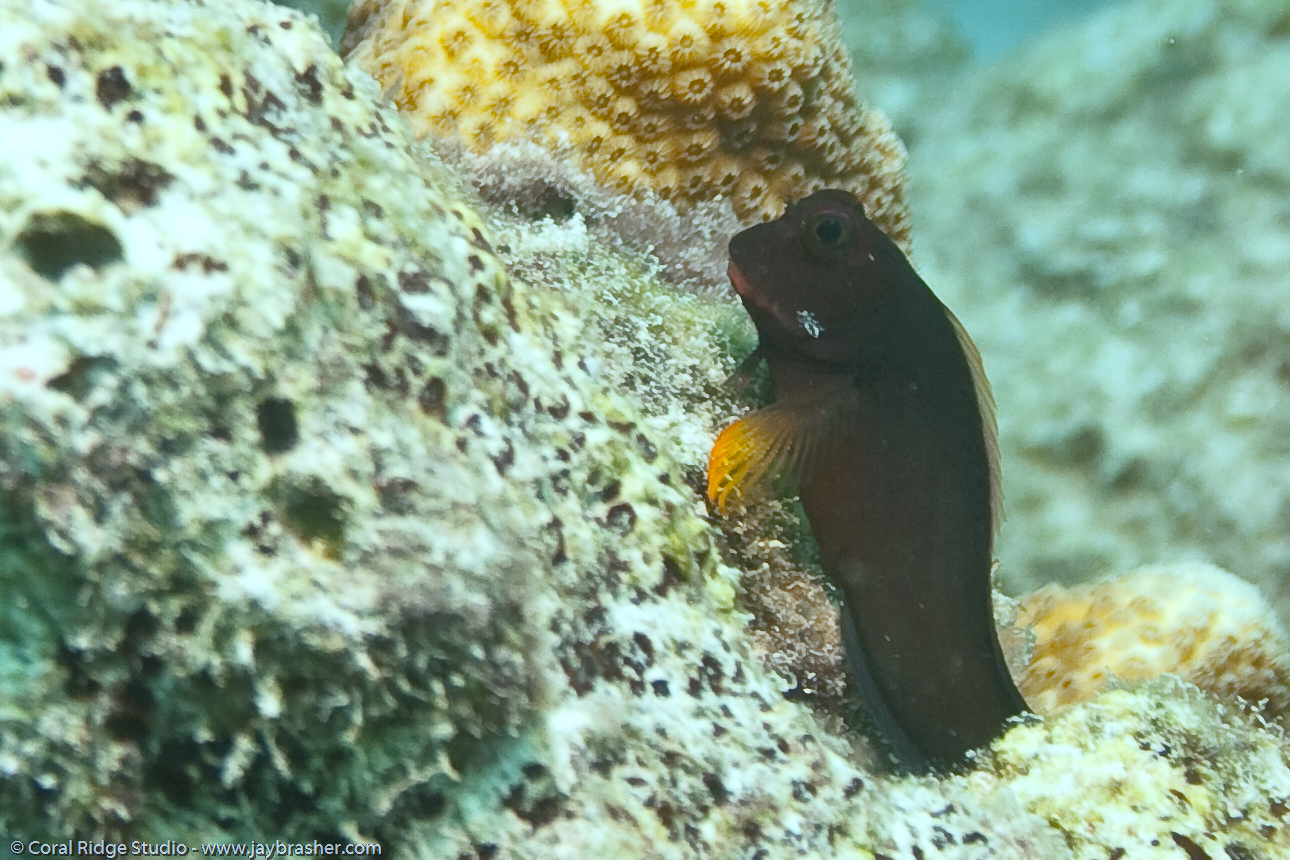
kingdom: Animalia
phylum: Chordata
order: Perciformes
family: Blenniidae
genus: Ophioblennius
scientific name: Ophioblennius macclurei
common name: Redlip blenny
